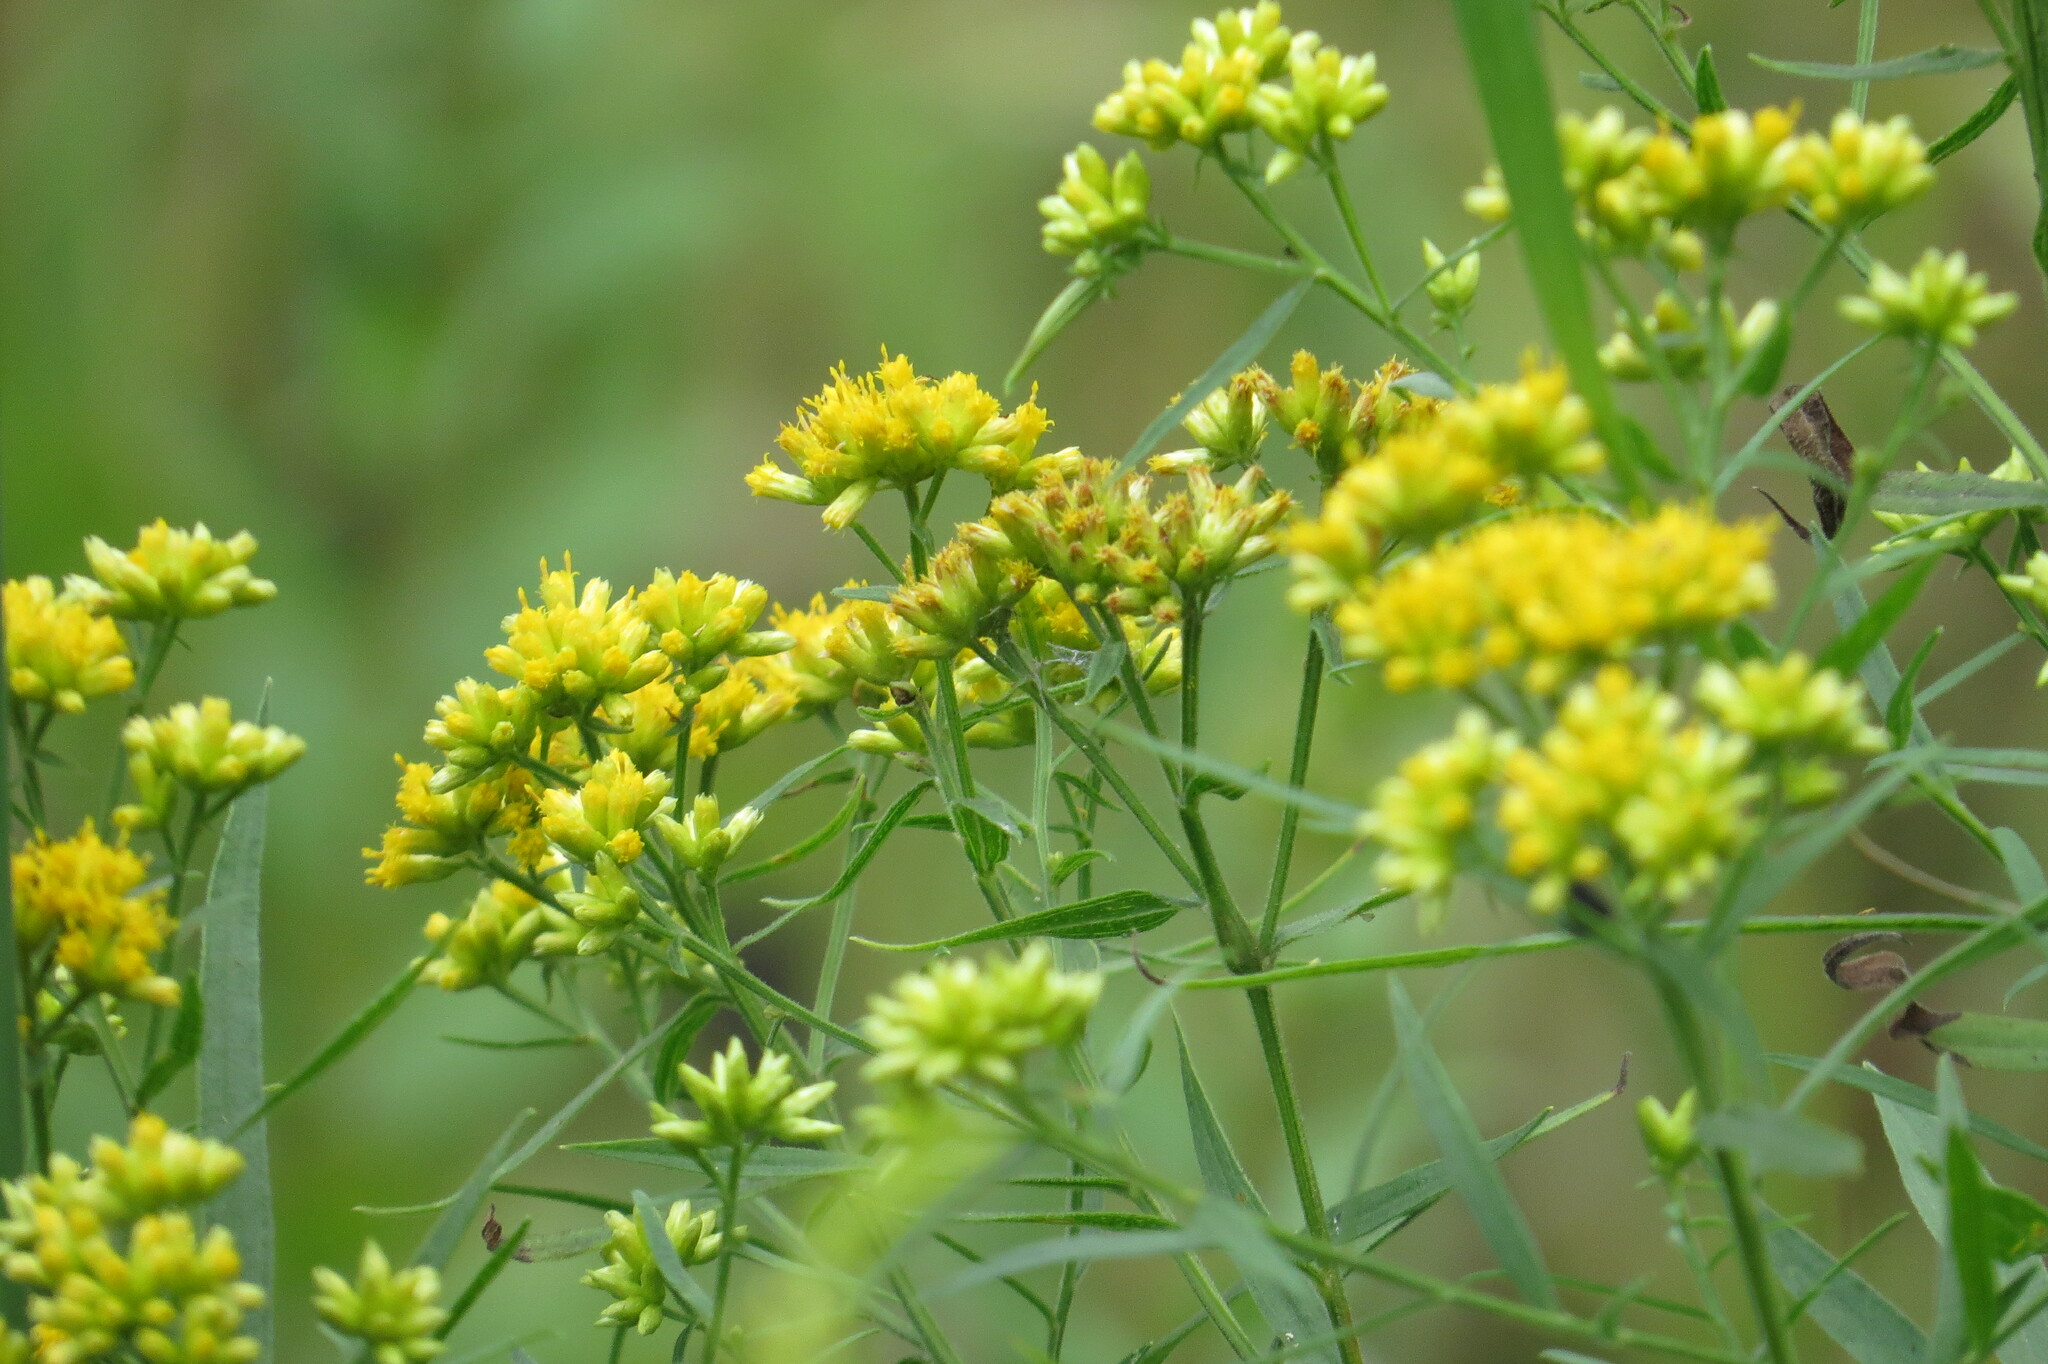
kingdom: Plantae
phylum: Tracheophyta
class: Magnoliopsida
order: Asterales
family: Asteraceae
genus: Euthamia
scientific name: Euthamia graminifolia
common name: Common goldentop
